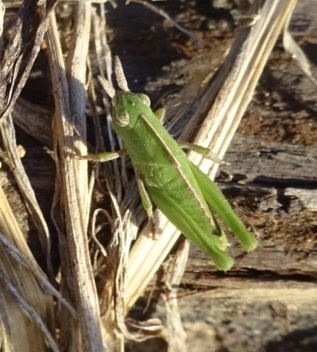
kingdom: Animalia
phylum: Arthropoda
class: Insecta
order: Orthoptera
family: Acrididae
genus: Chortophaga
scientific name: Chortophaga viridifasciata
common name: Green-striped grasshopper
